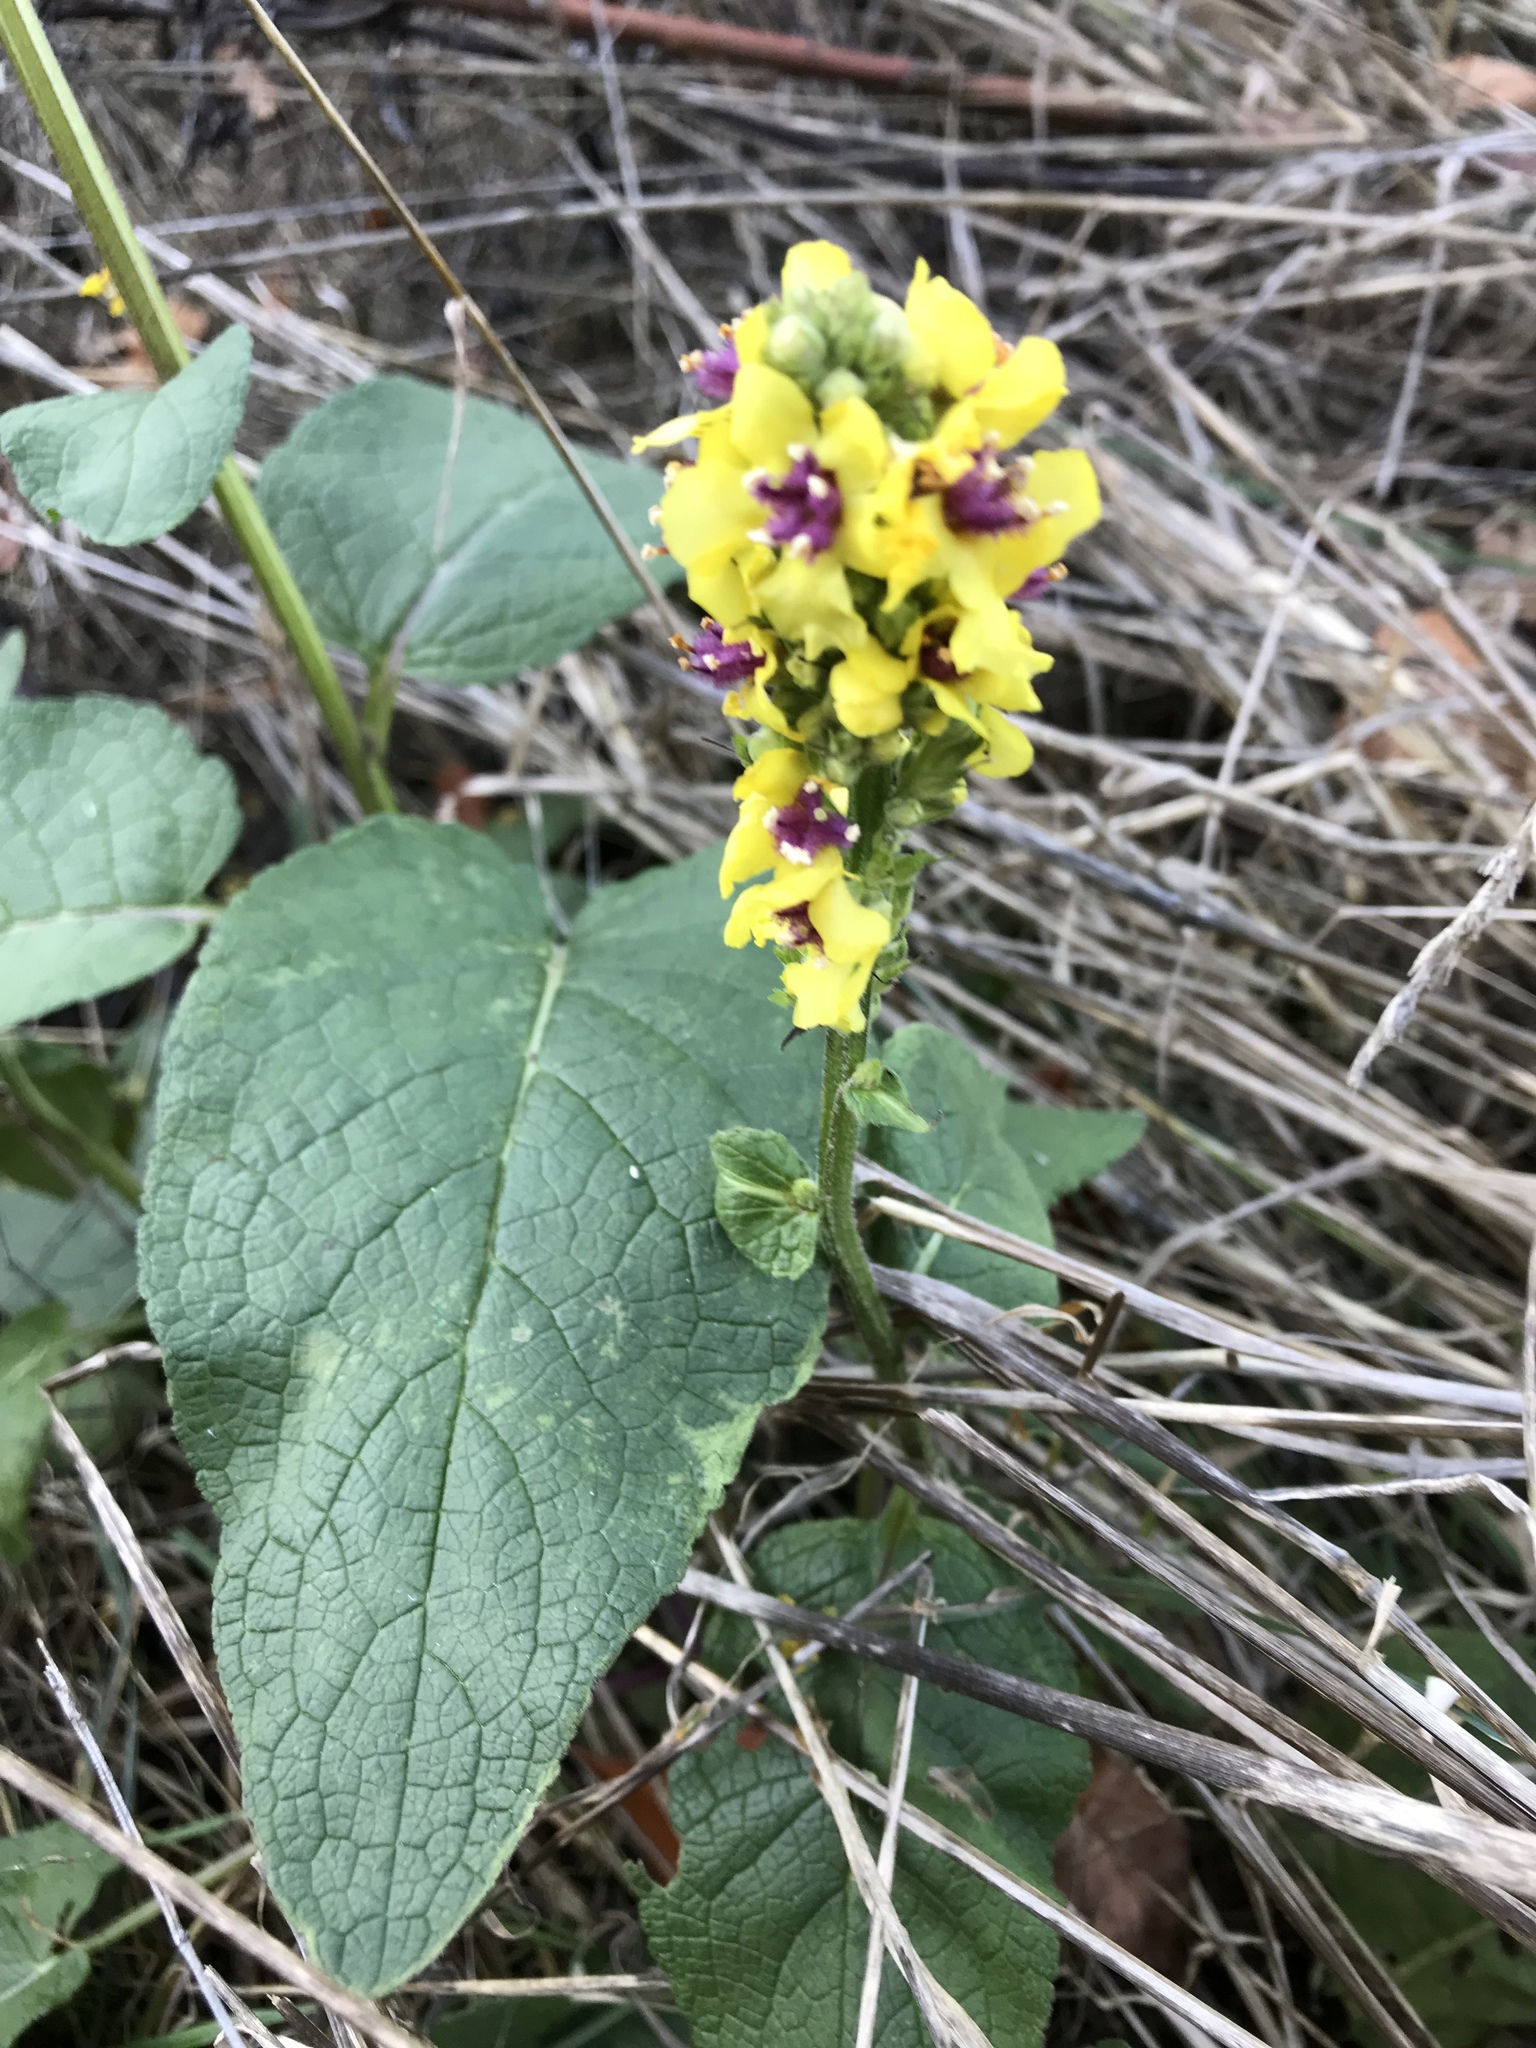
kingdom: Plantae
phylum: Tracheophyta
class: Magnoliopsida
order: Lamiales
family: Scrophulariaceae
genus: Verbascum
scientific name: Verbascum nigrum
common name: Dark mullein
